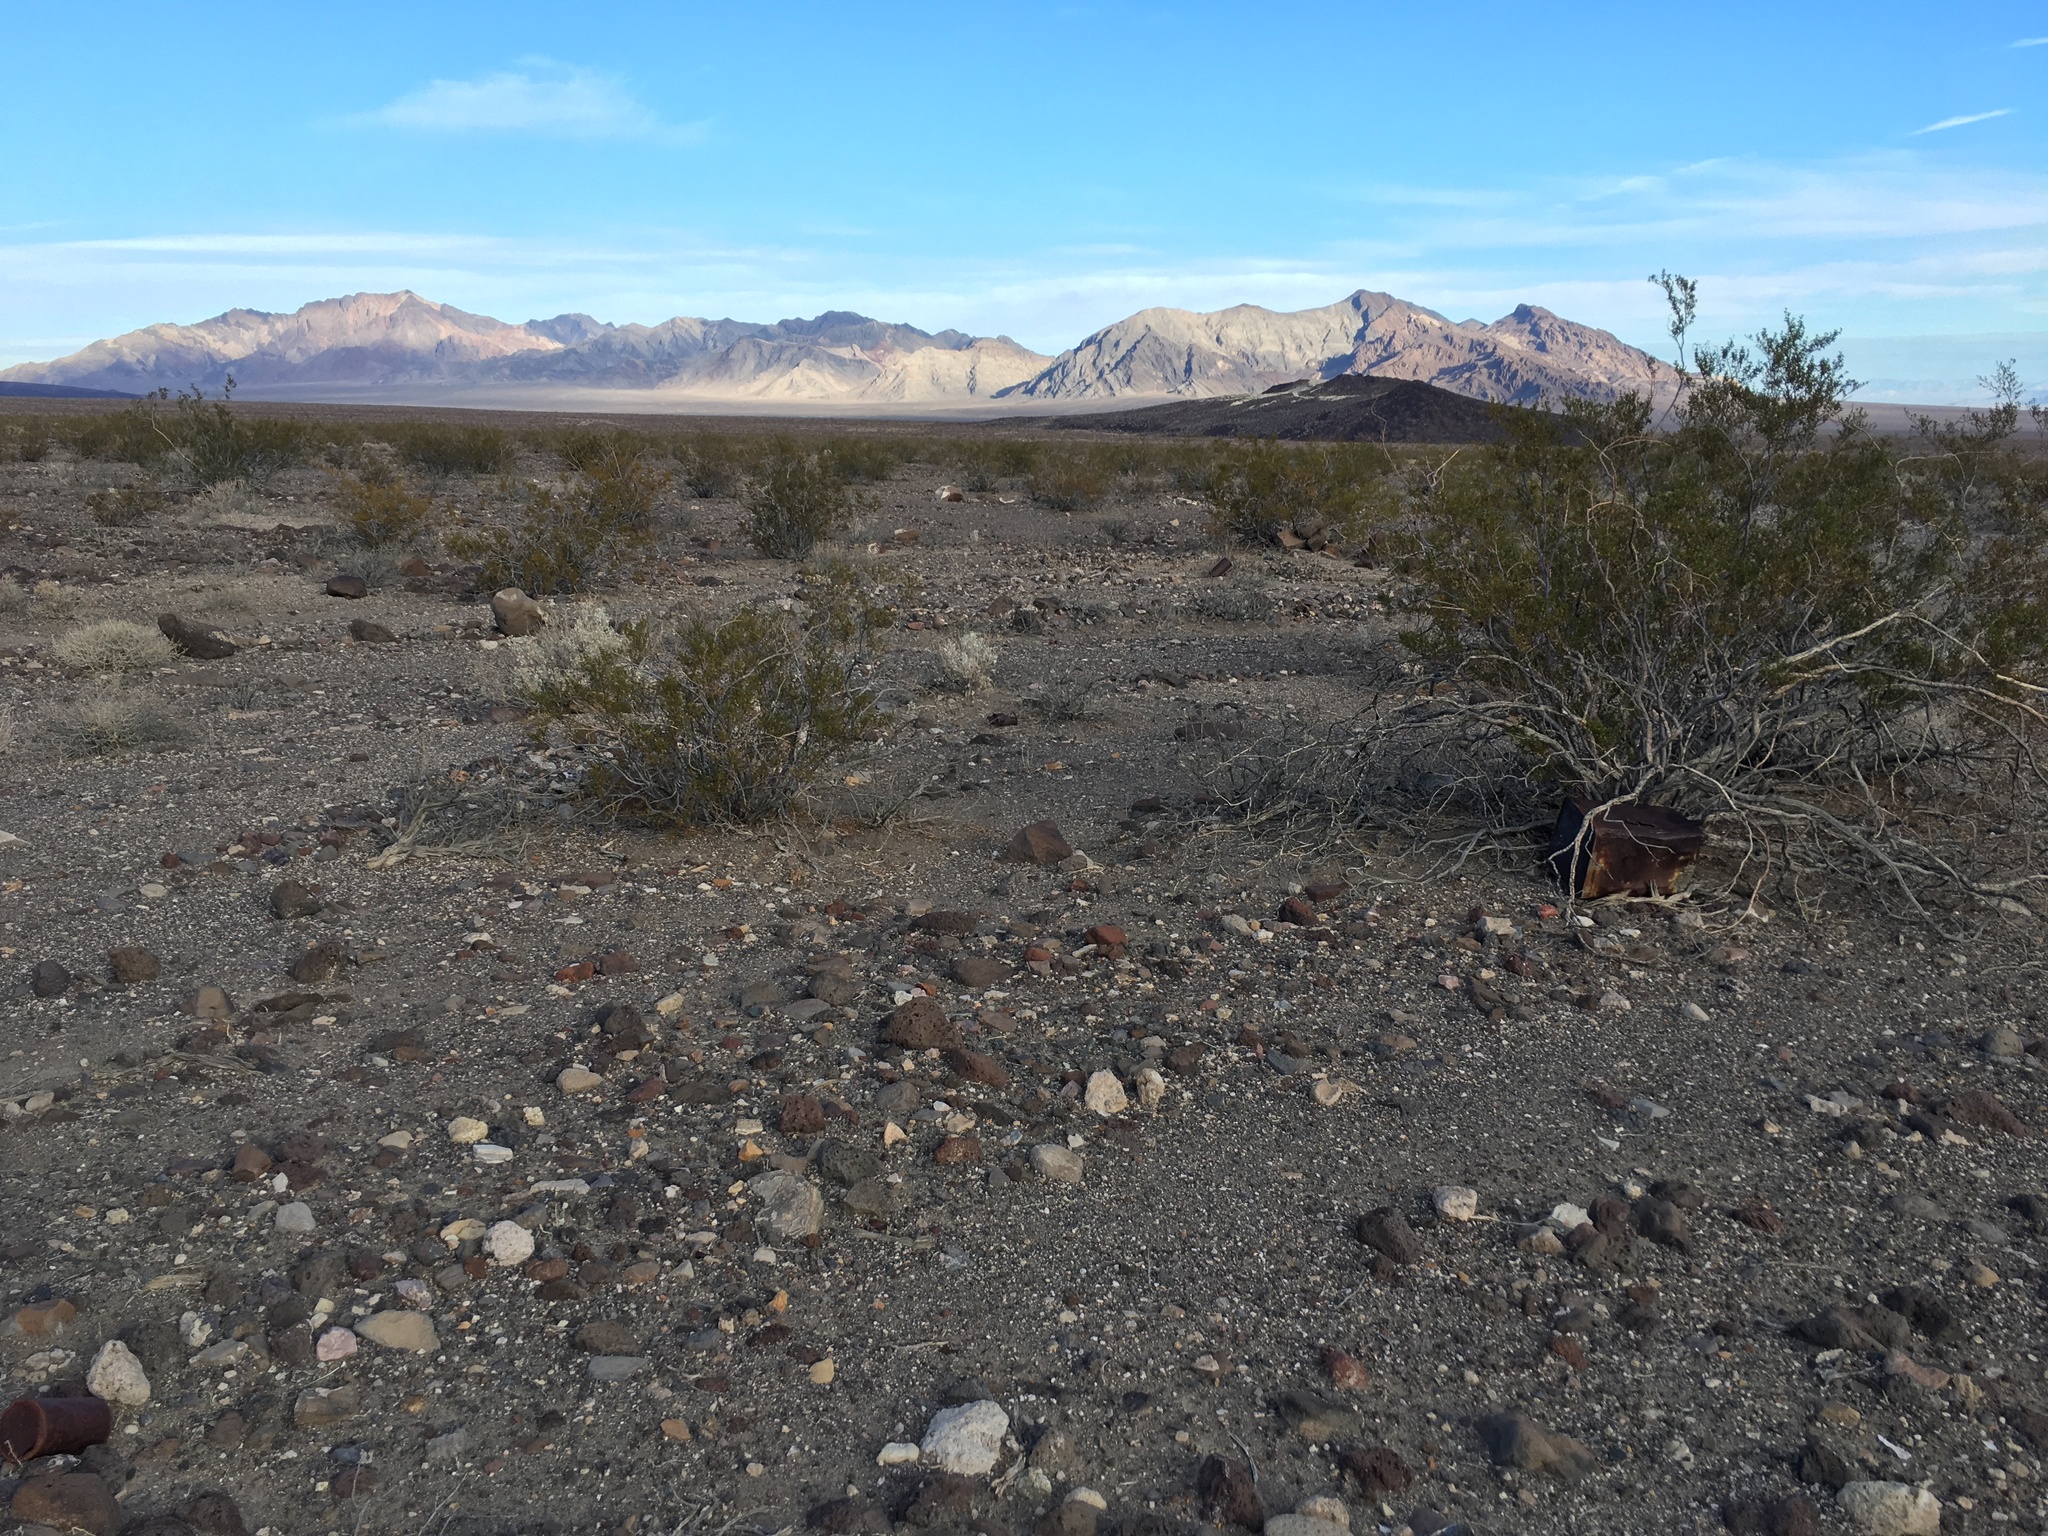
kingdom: Plantae
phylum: Tracheophyta
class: Magnoliopsida
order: Zygophyllales
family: Zygophyllaceae
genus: Larrea
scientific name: Larrea tridentata
